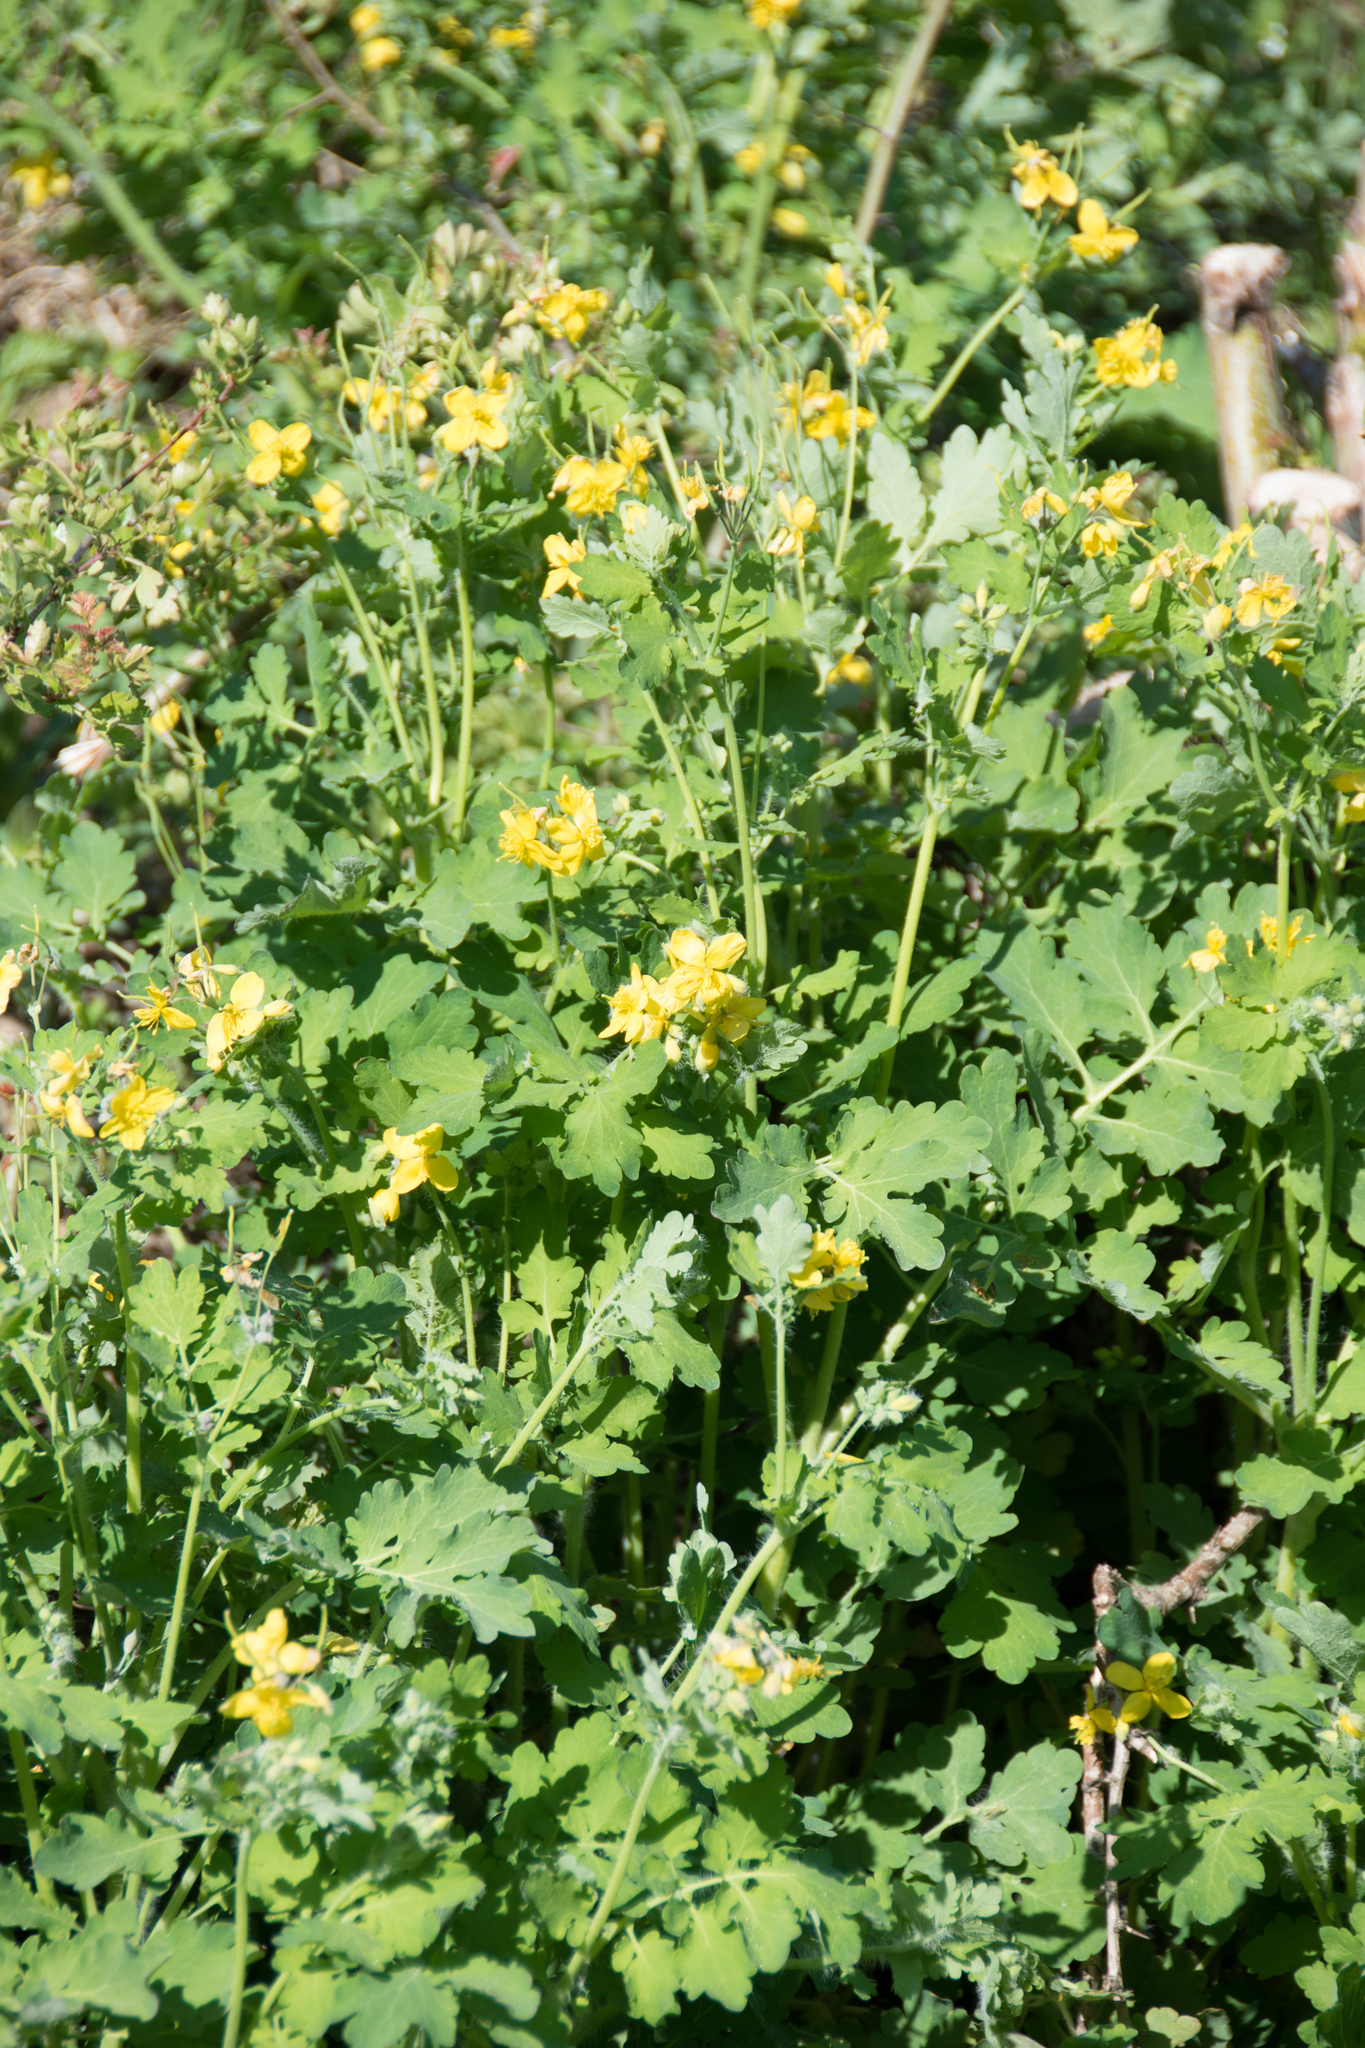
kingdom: Plantae
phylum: Tracheophyta
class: Magnoliopsida
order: Ranunculales
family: Papaveraceae
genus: Chelidonium
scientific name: Chelidonium majus
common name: Greater celandine
